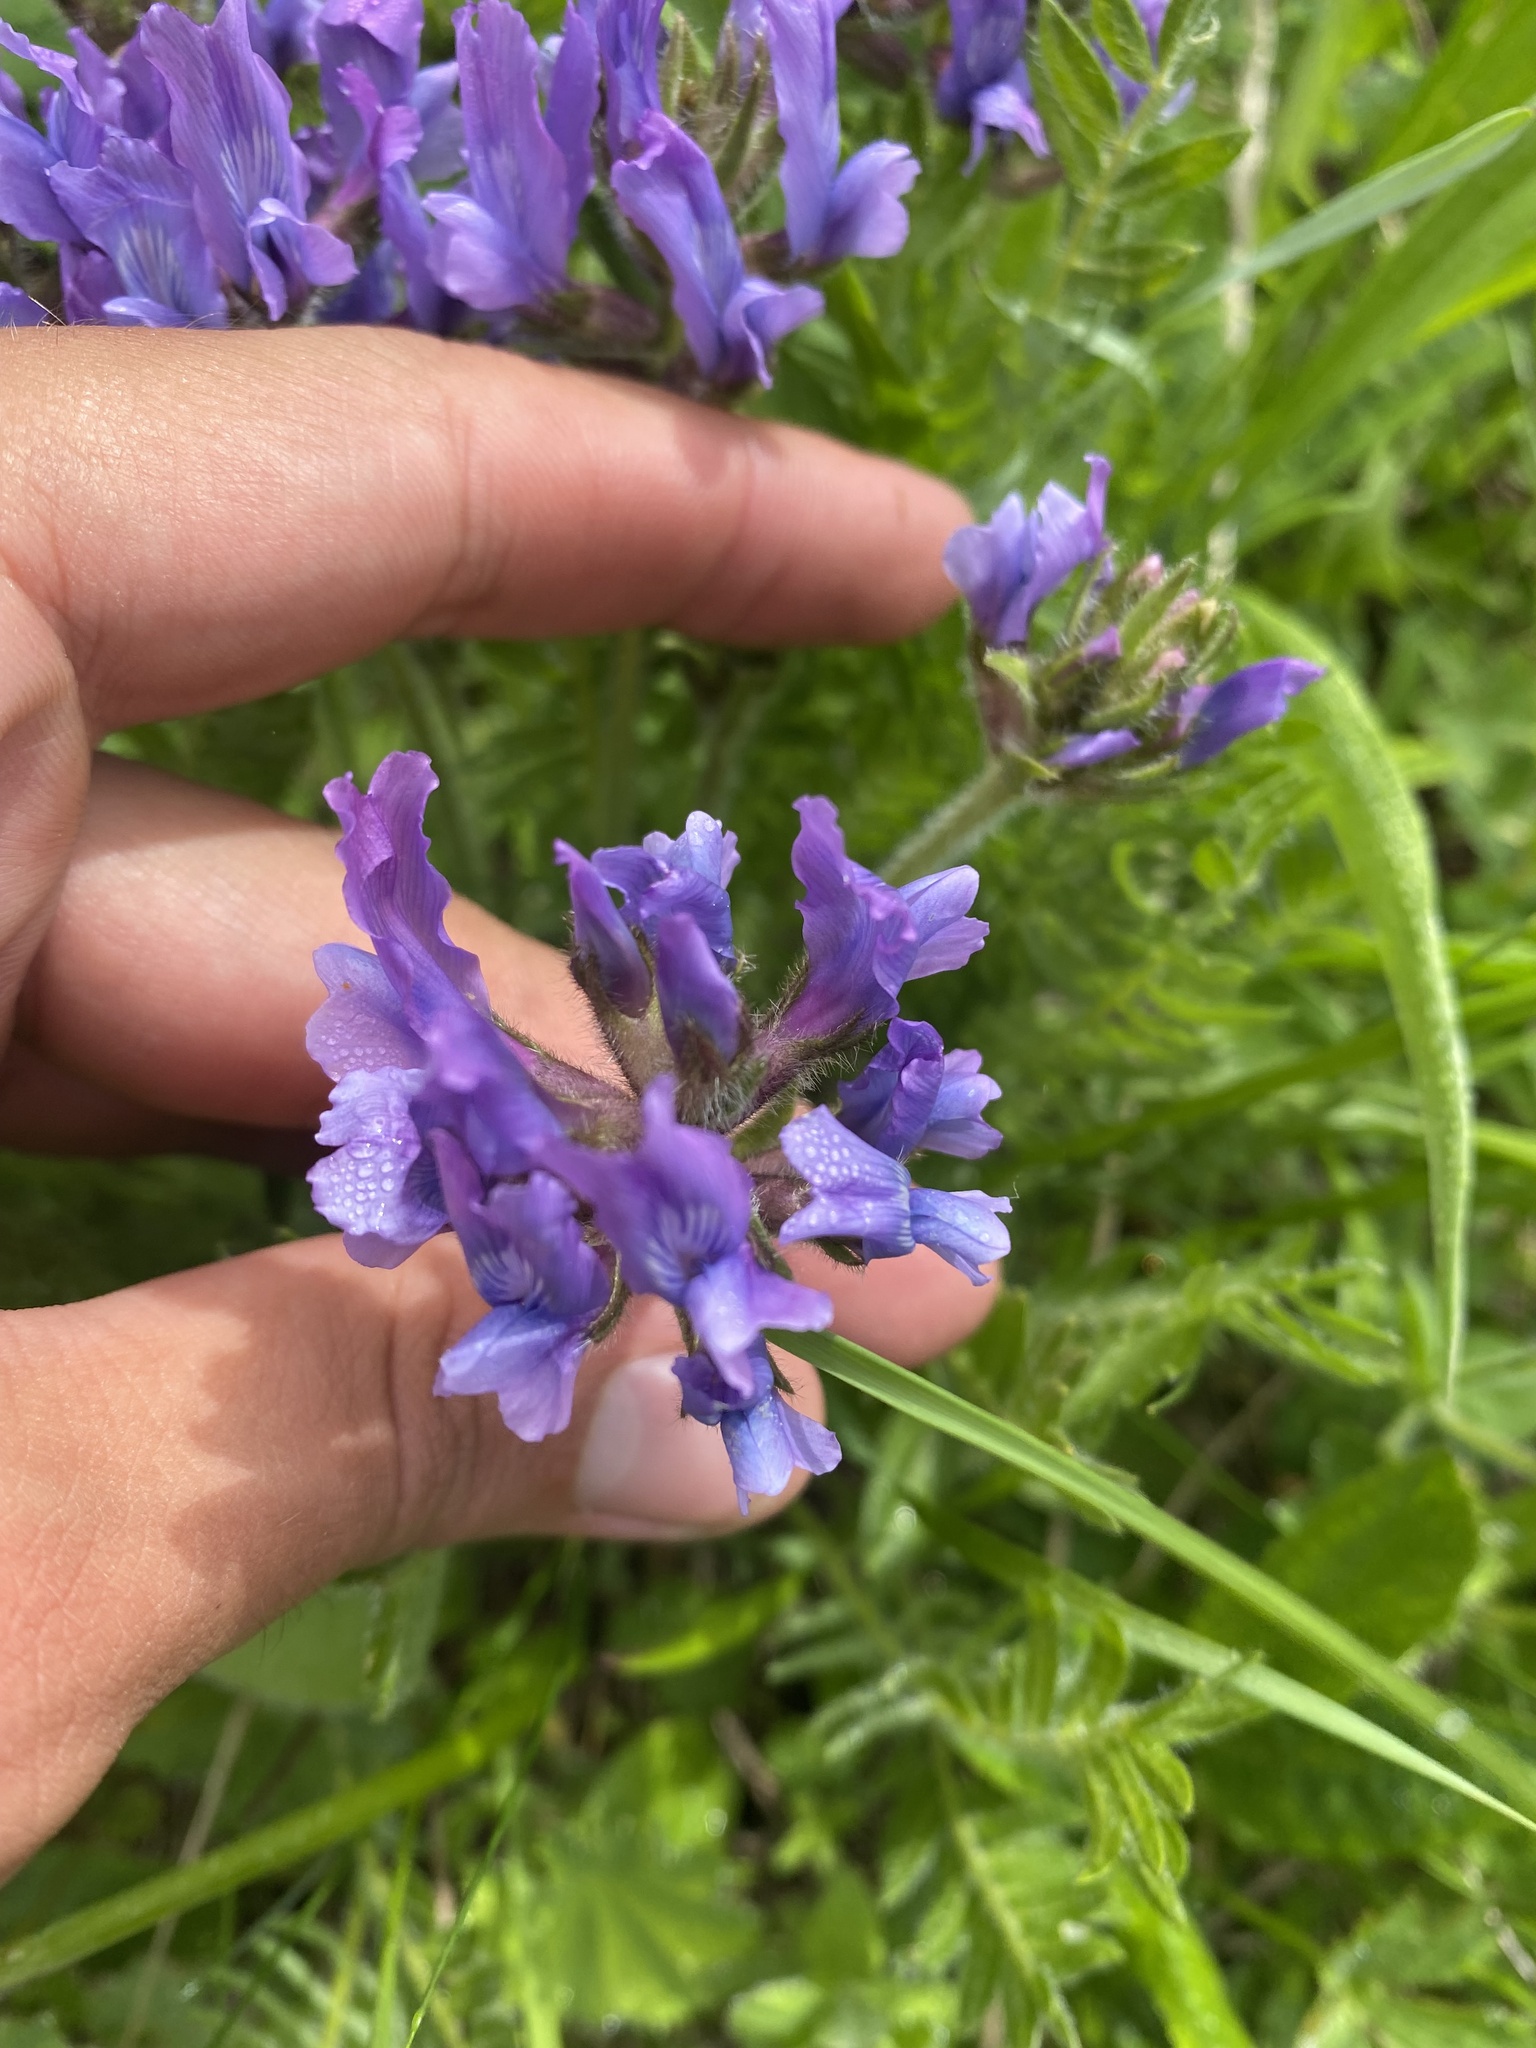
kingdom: Plantae
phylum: Tracheophyta
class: Magnoliopsida
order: Fabales
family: Fabaceae
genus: Oxytropis
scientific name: Oxytropis lazica
